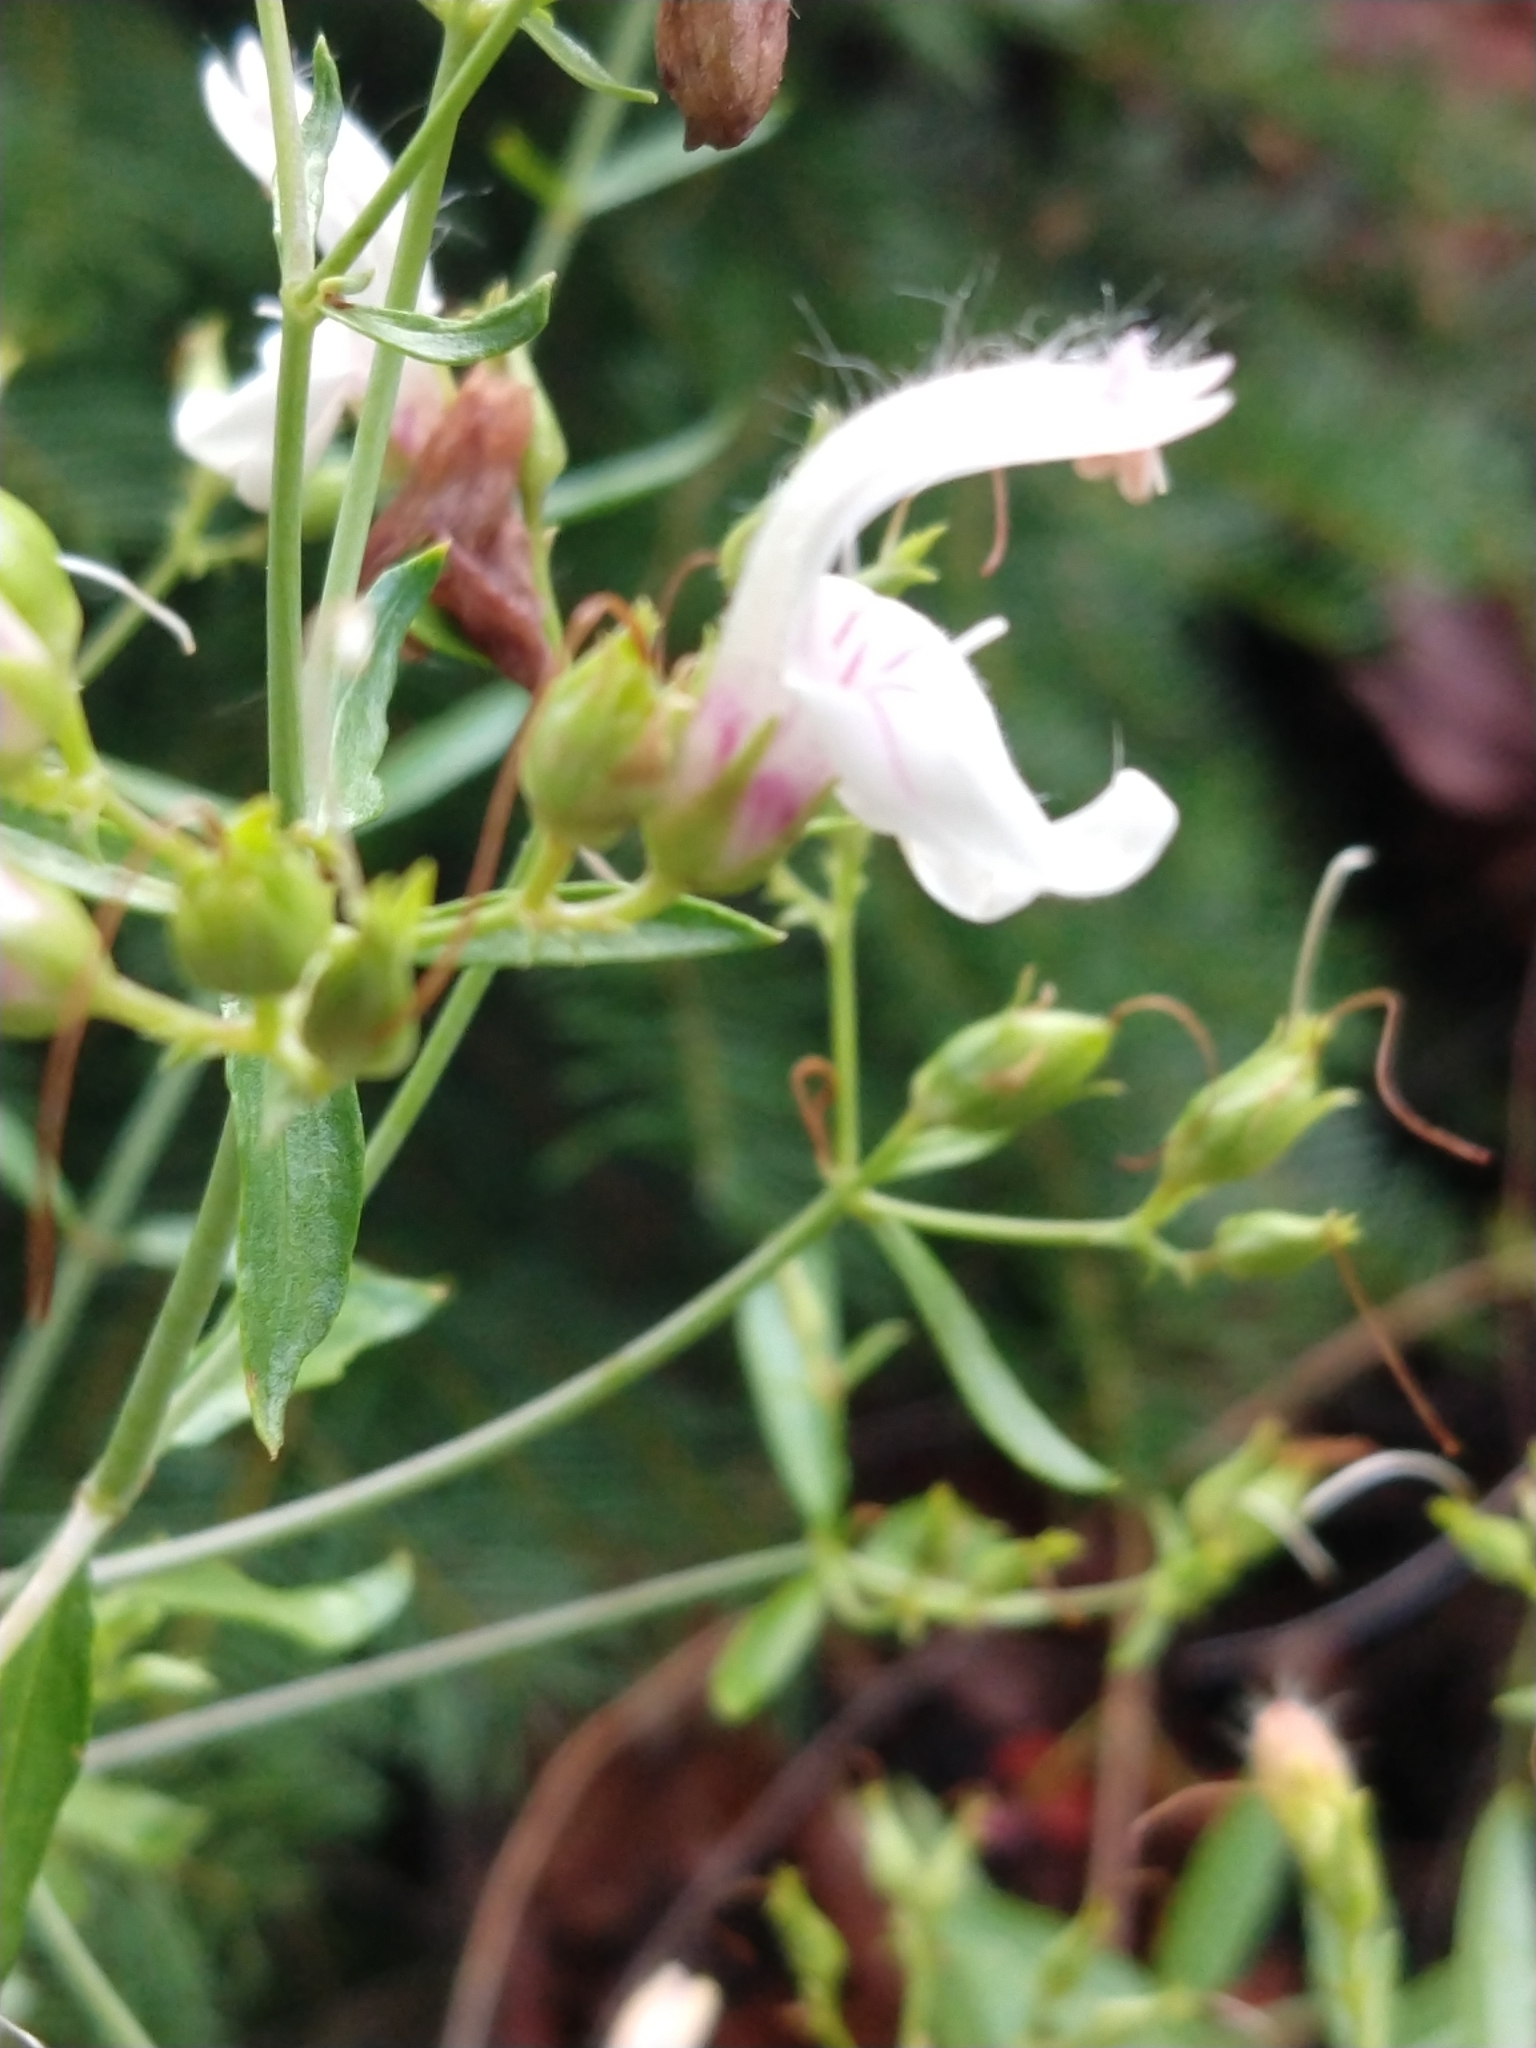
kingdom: Plantae
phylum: Tracheophyta
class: Magnoliopsida
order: Lamiales
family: Plantaginaceae
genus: Keckiella
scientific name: Keckiella breviflora
